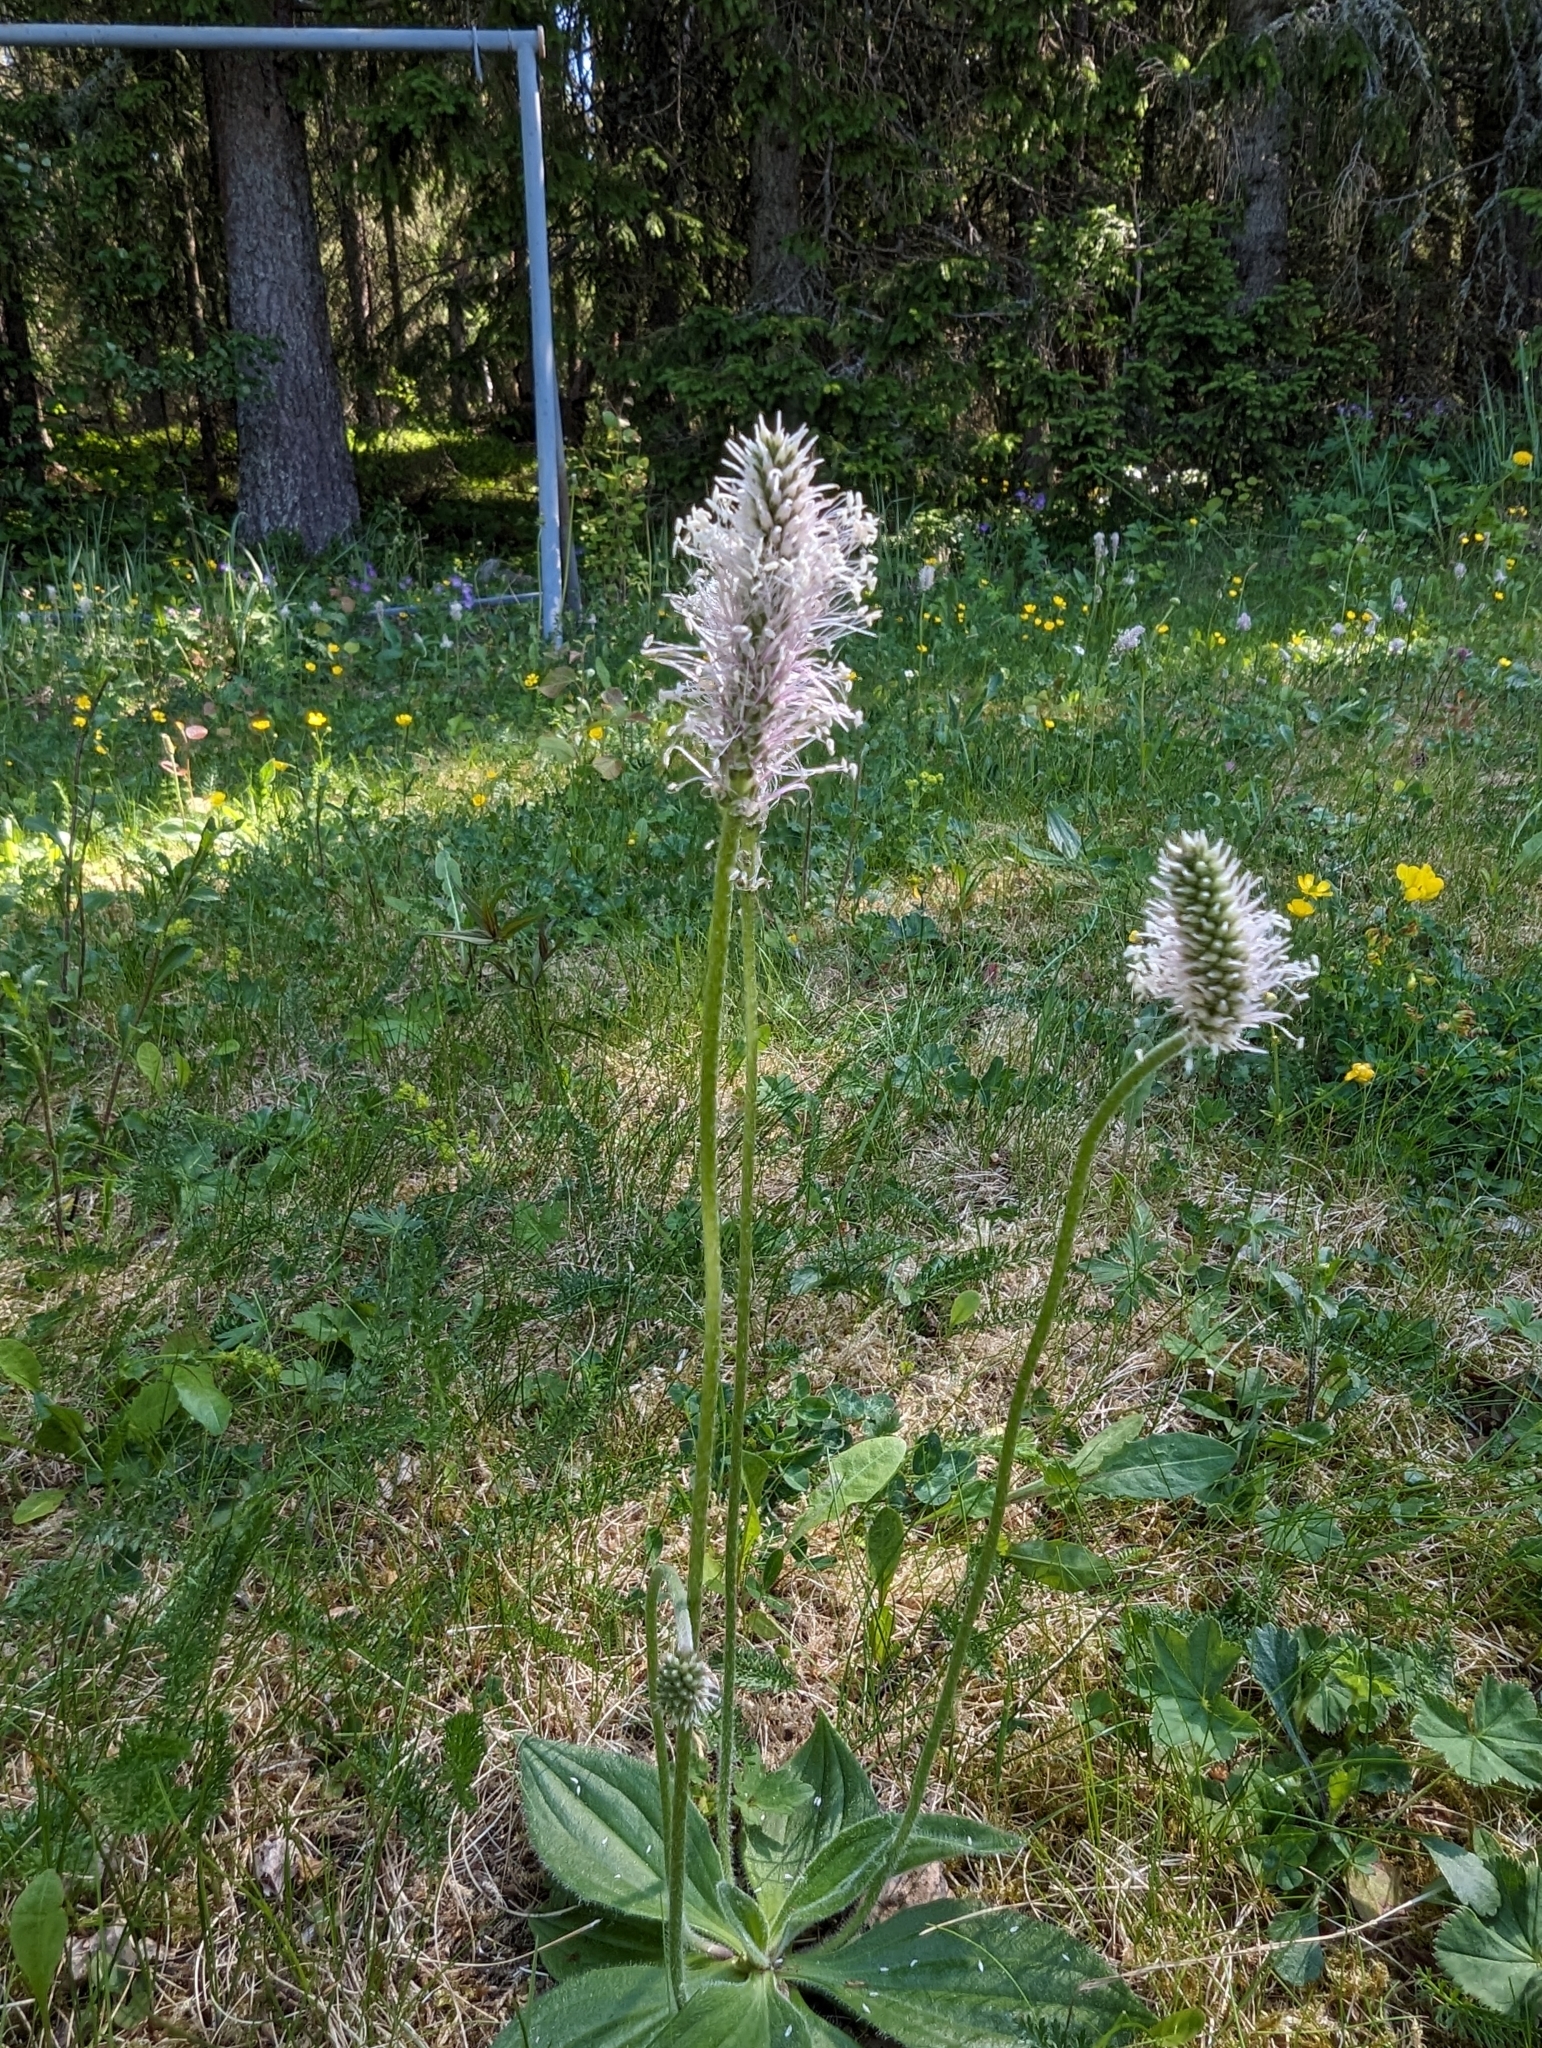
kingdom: Plantae
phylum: Tracheophyta
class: Magnoliopsida
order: Lamiales
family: Plantaginaceae
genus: Plantago
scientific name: Plantago media
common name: Hoary plantain
